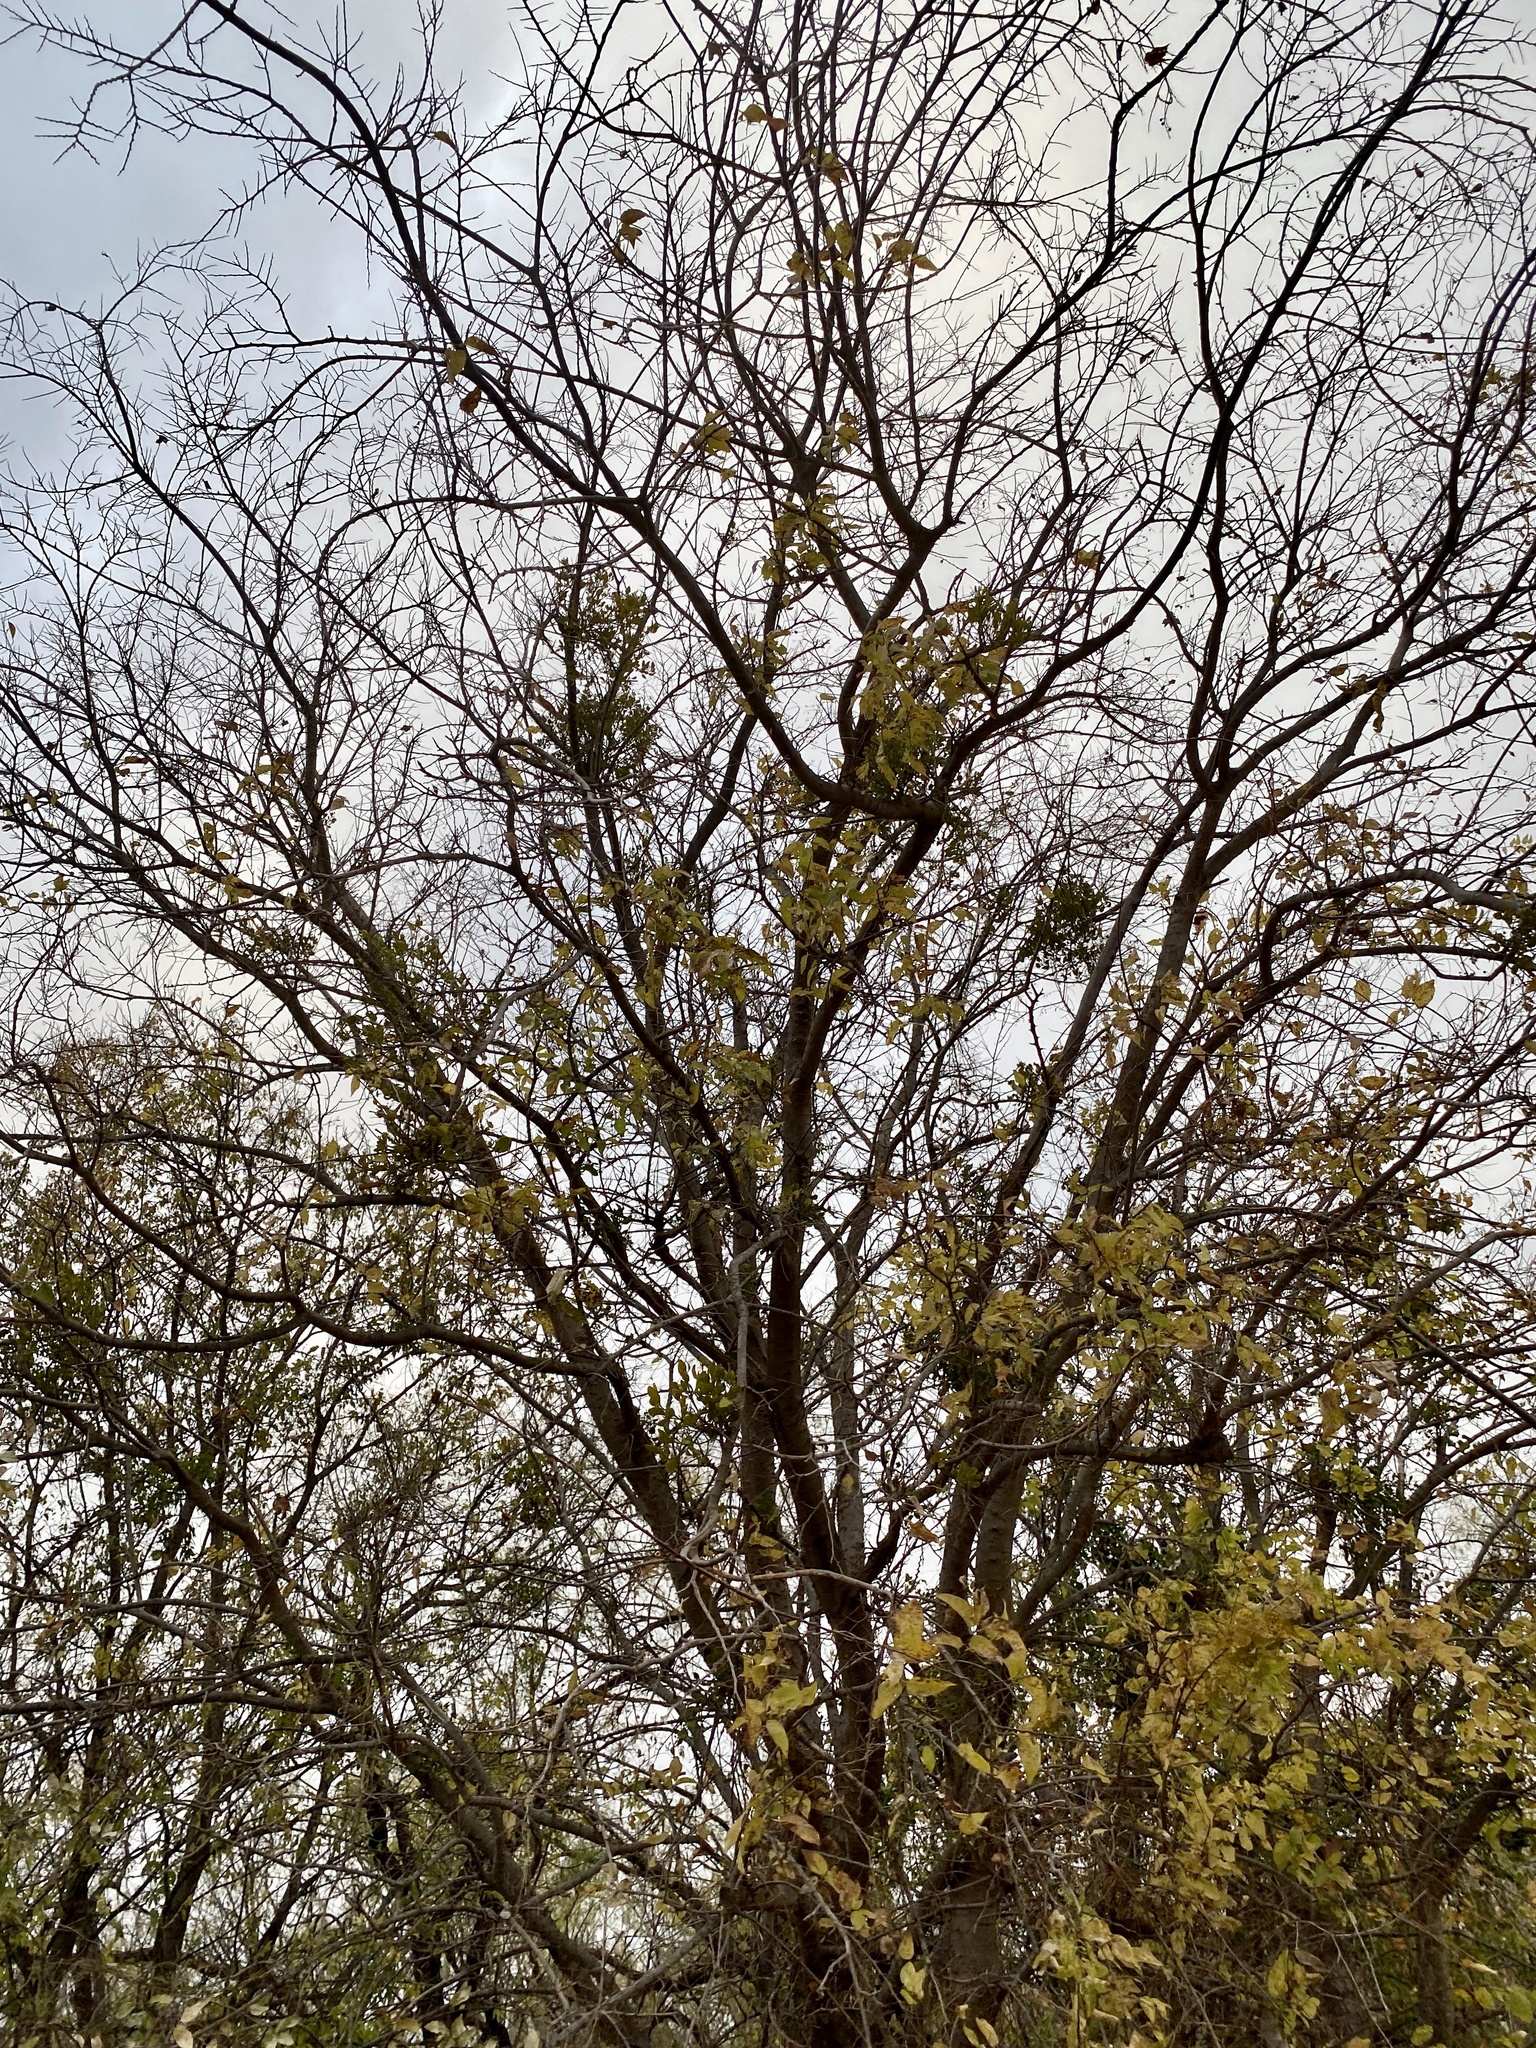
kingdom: Plantae
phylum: Tracheophyta
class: Magnoliopsida
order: Rosales
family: Cannabaceae
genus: Celtis
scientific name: Celtis laevigata
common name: Sugarberry
